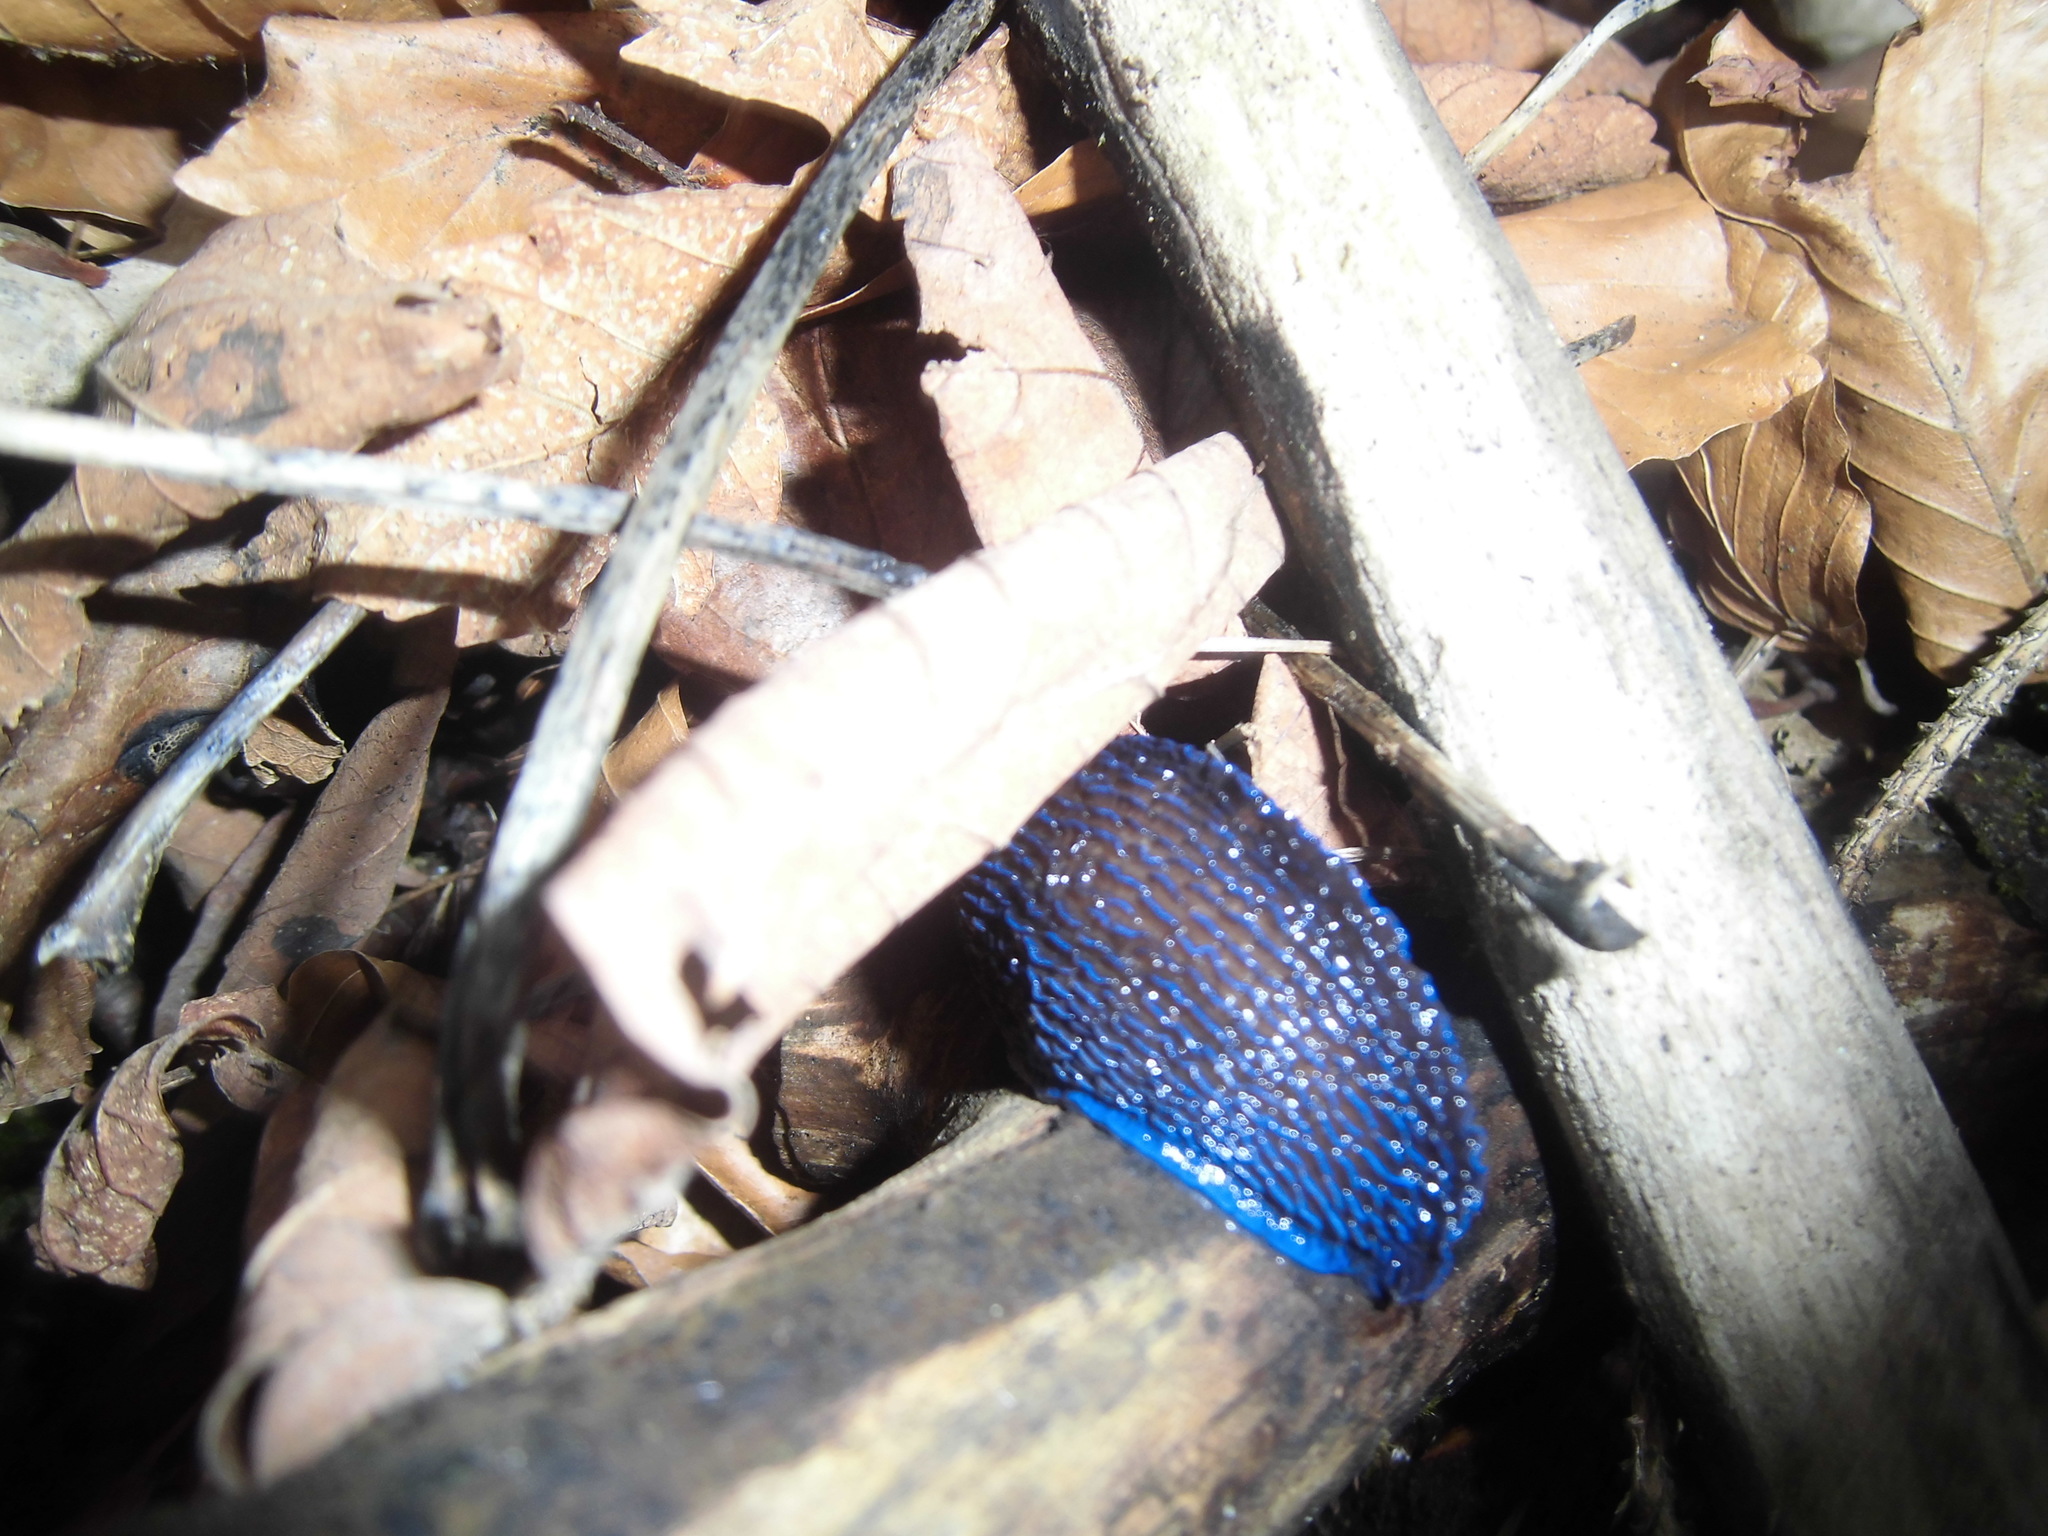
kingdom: Animalia
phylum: Mollusca
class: Gastropoda
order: Stylommatophora
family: Limacidae
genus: Bielzia
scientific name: Bielzia coerulans
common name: Carpathian blue slug
